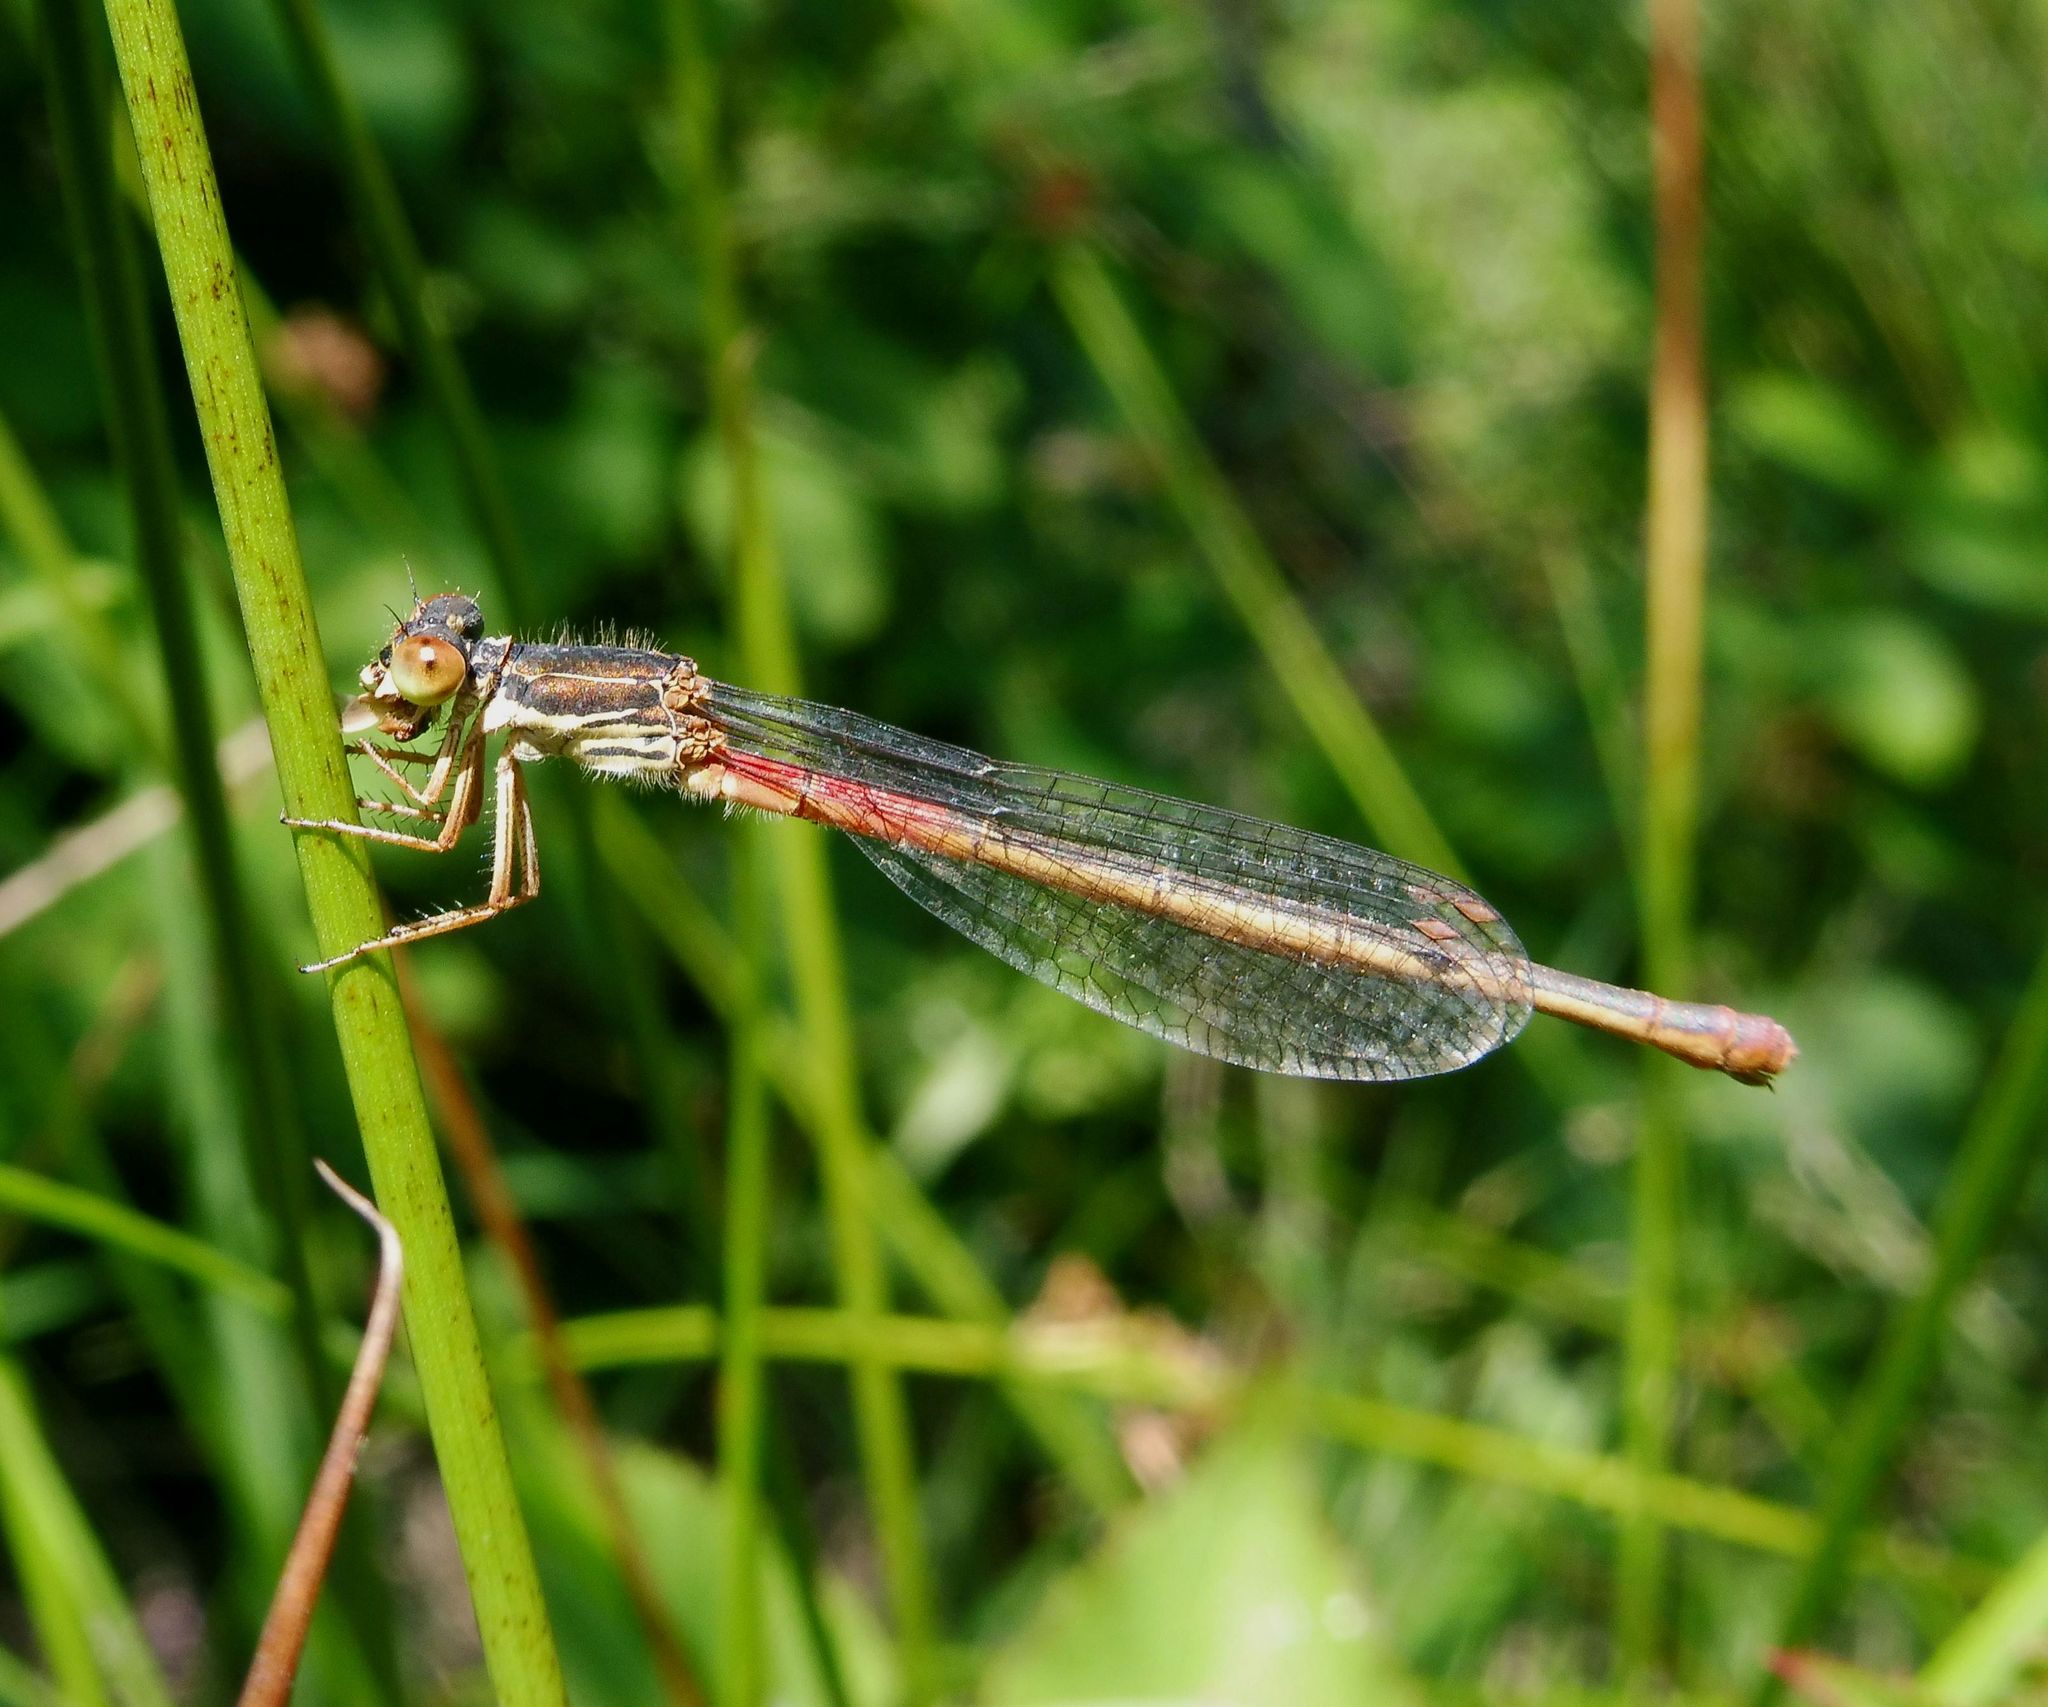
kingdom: Animalia
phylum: Arthropoda
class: Insecta
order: Odonata
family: Coenagrionidae
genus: Ceriagrion
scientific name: Ceriagrion tenellum
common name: Small red damselfly
